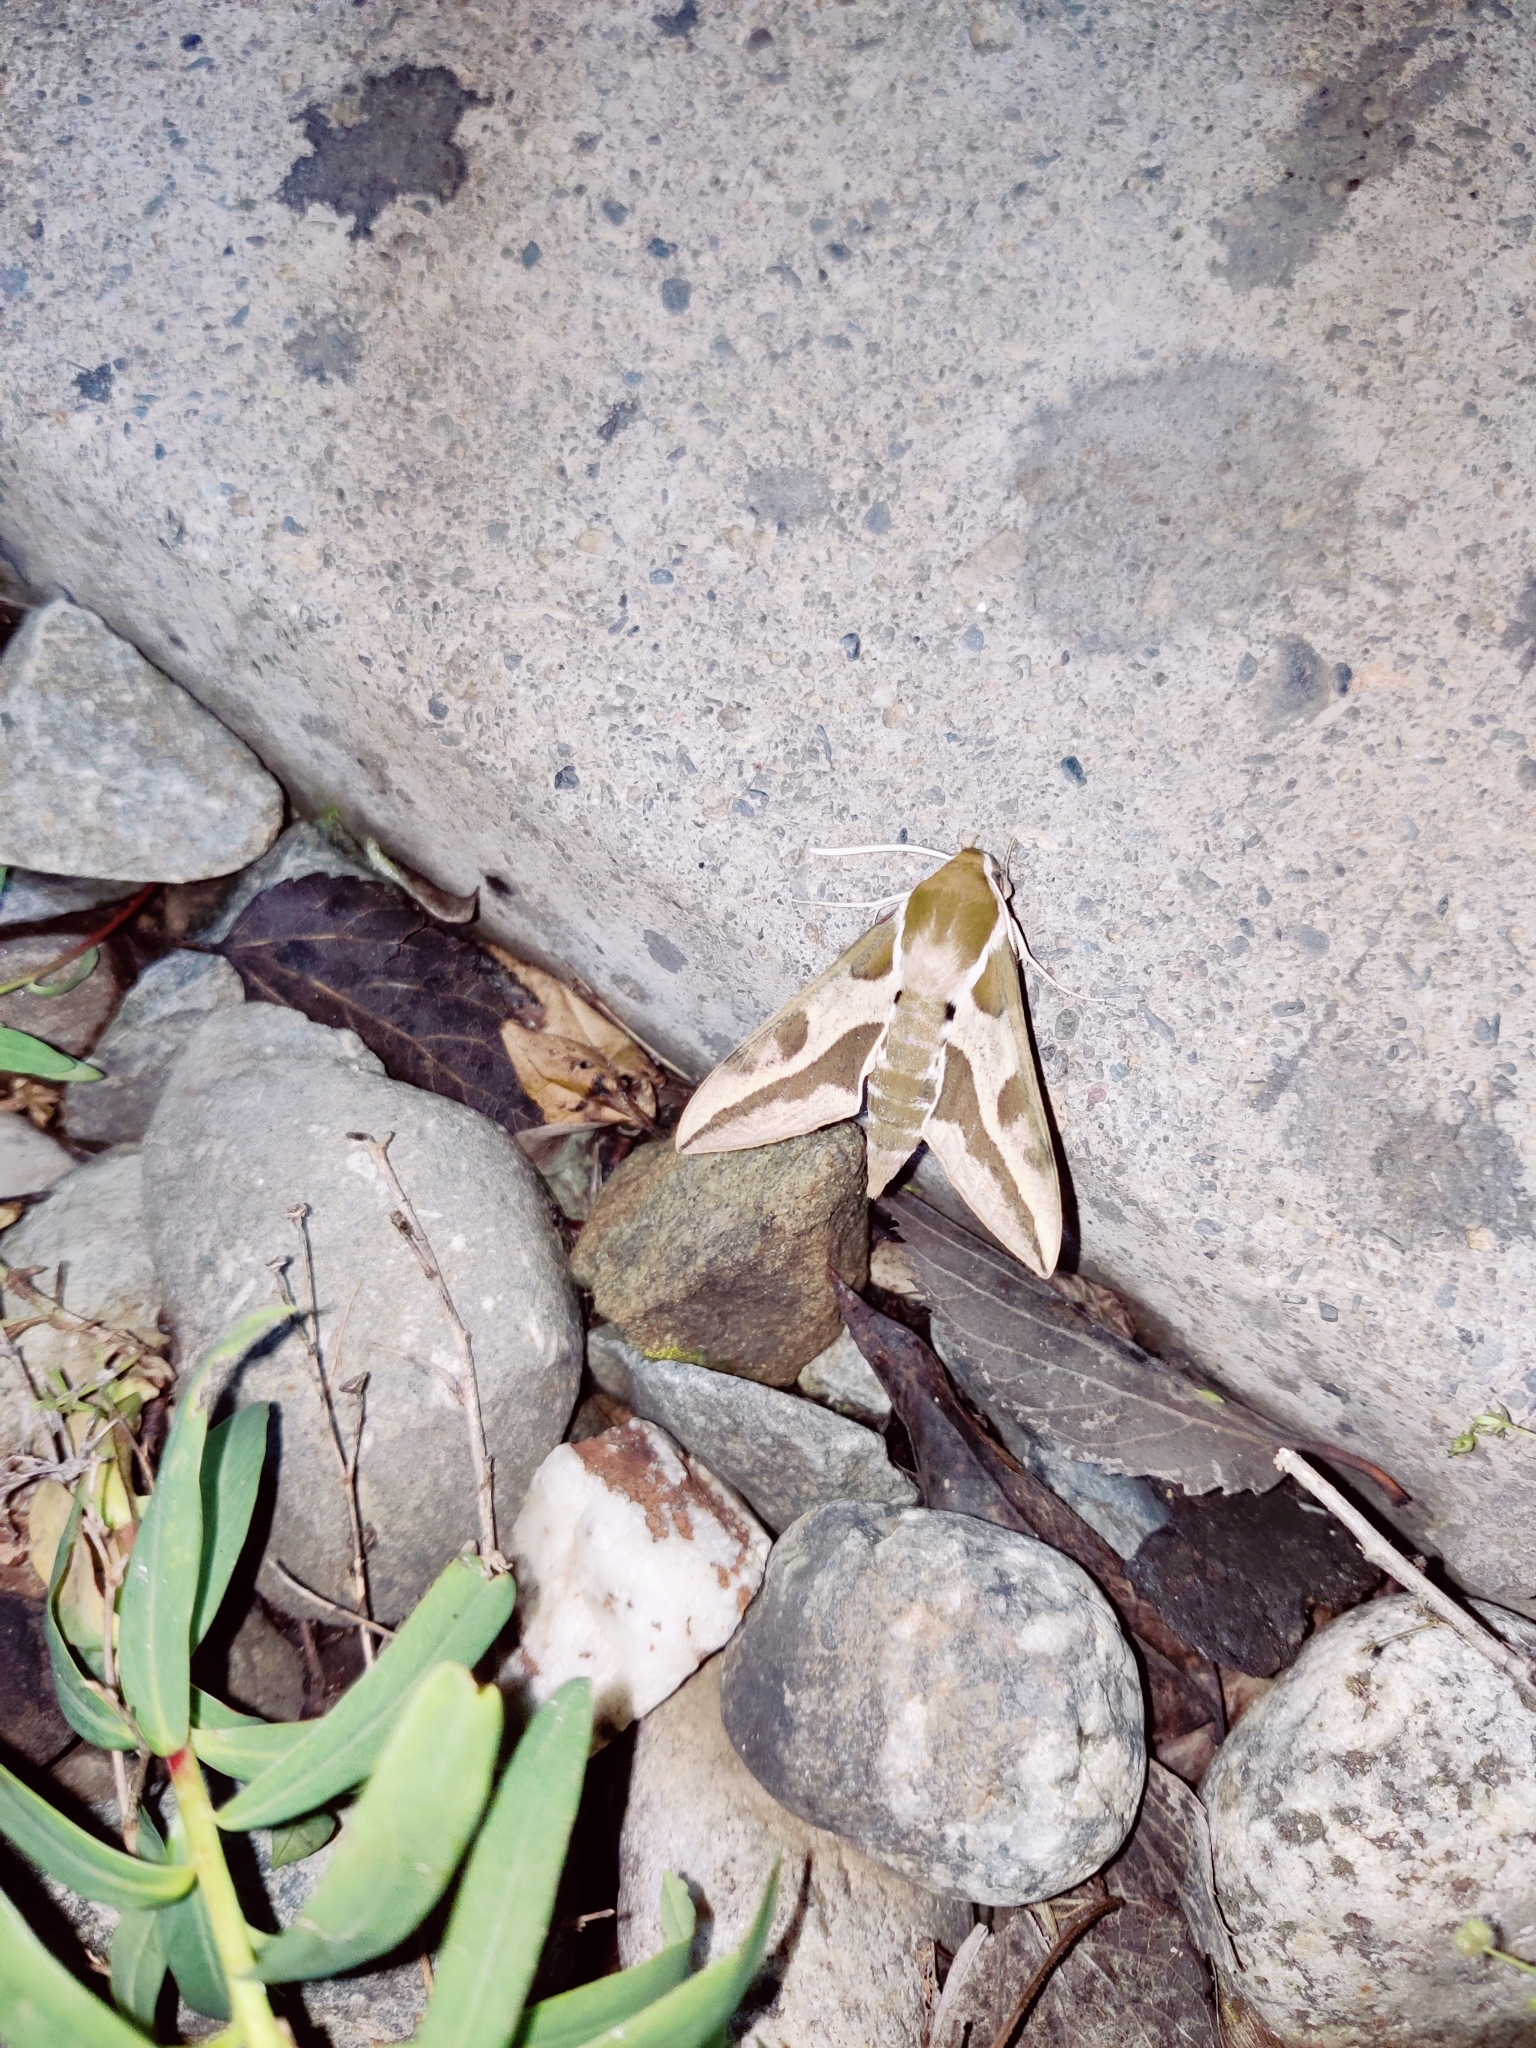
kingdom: Animalia
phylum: Arthropoda
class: Insecta
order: Lepidoptera
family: Sphingidae
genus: Hyles
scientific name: Hyles euphorbiae
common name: Spurge hawk-moth
